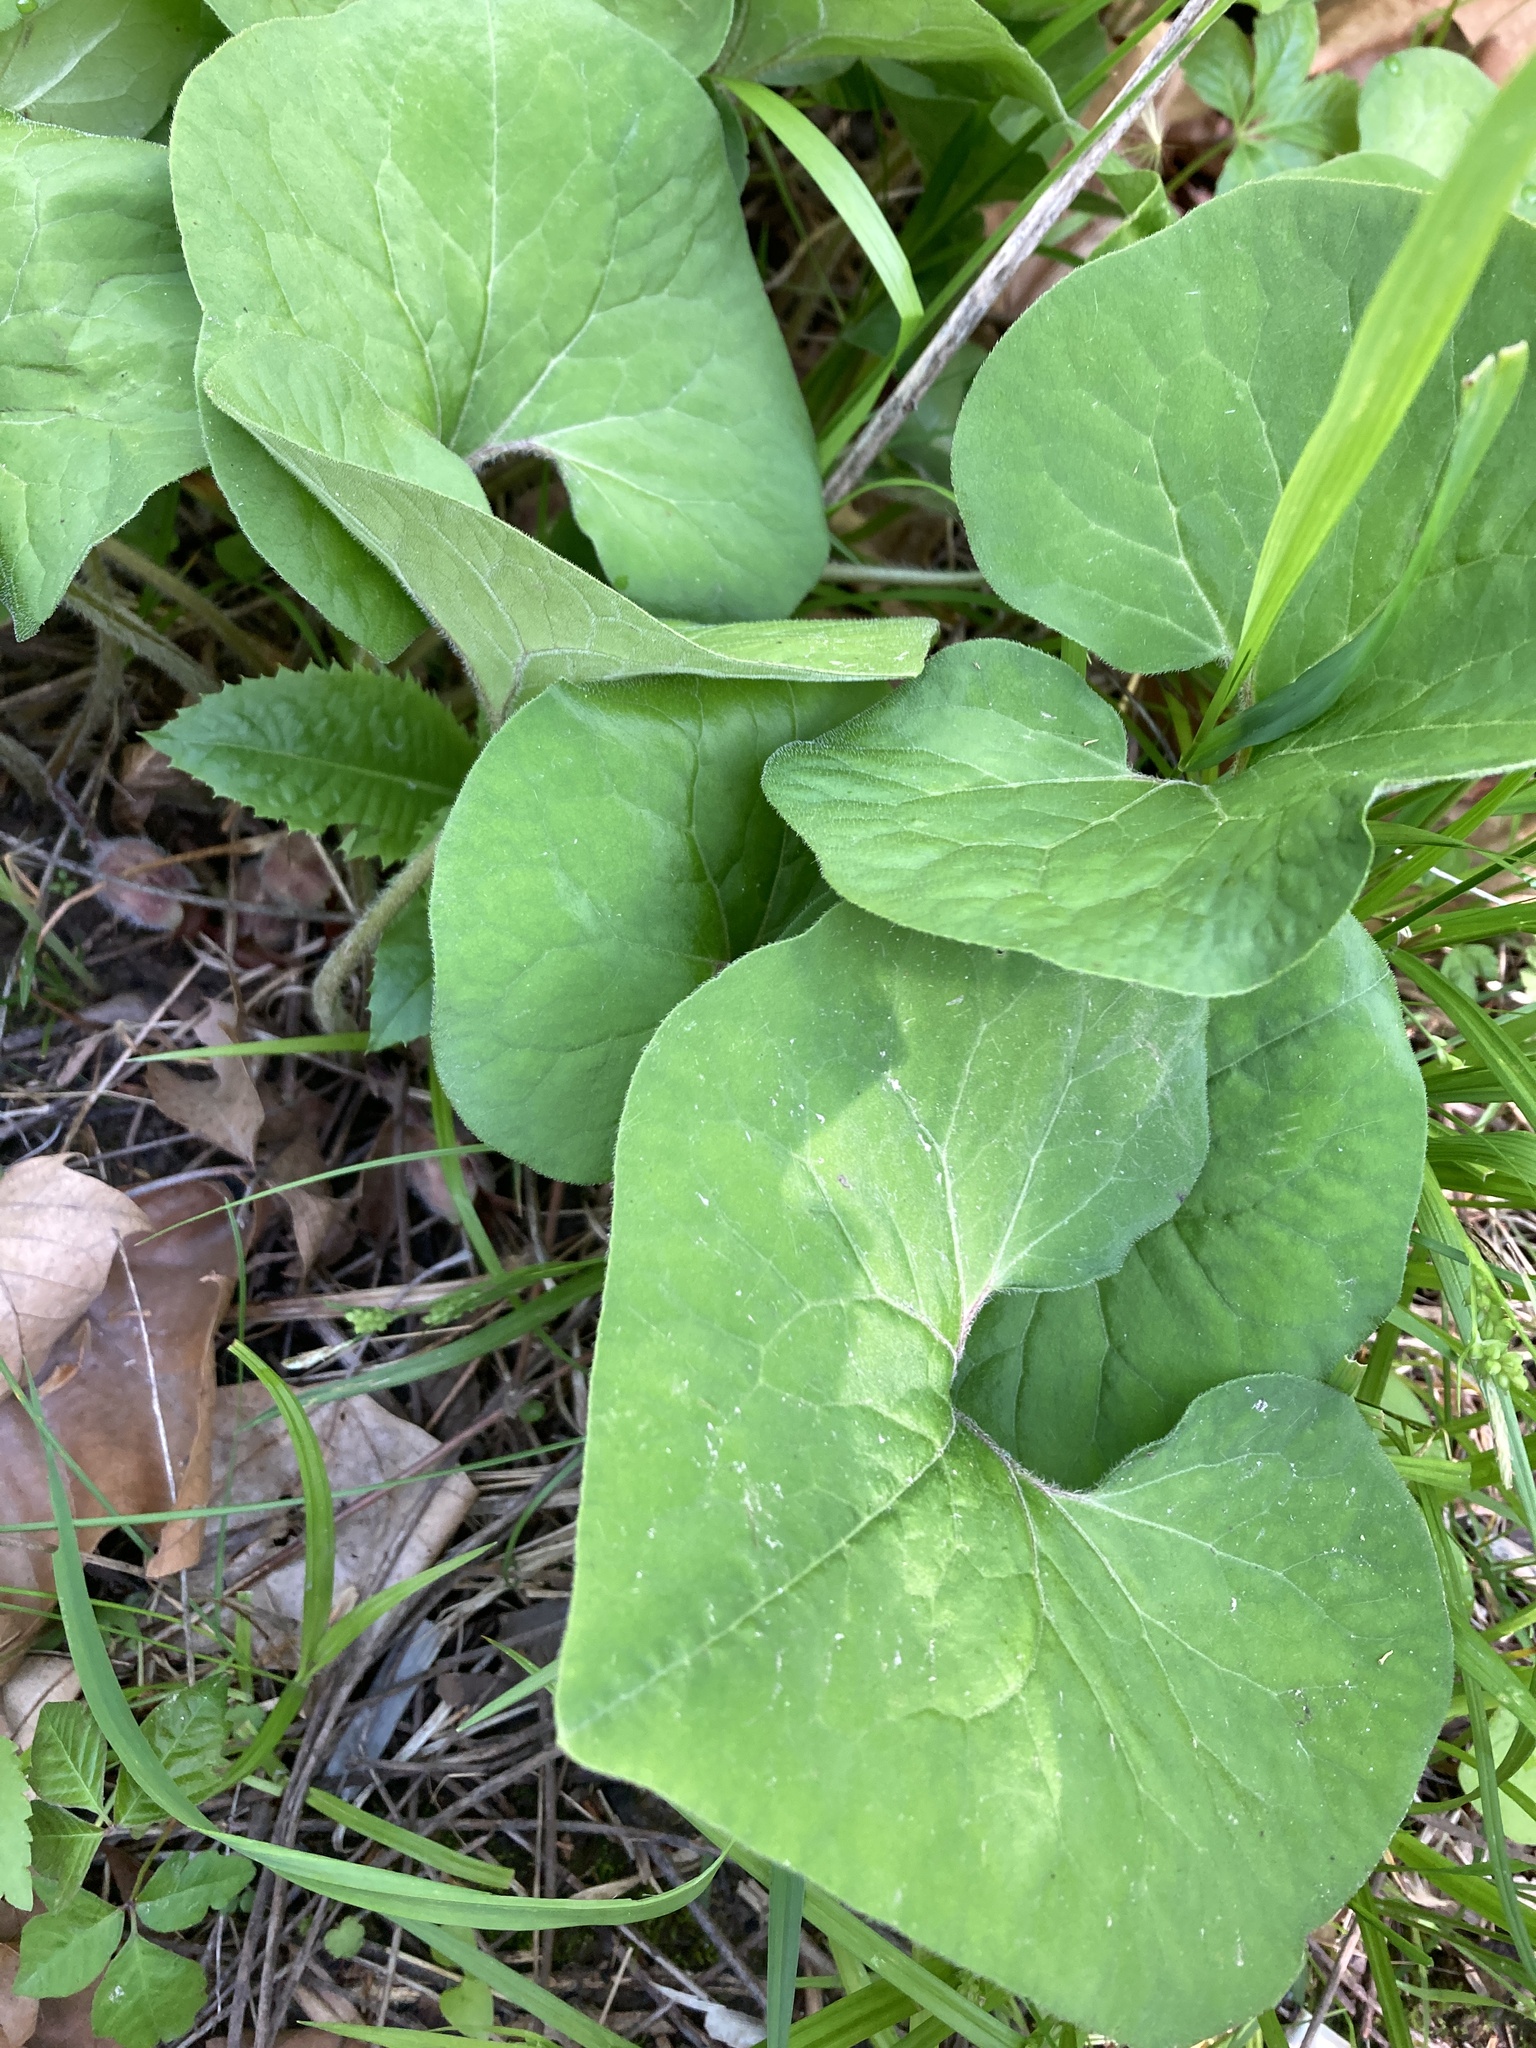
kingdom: Plantae
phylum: Tracheophyta
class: Magnoliopsida
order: Piperales
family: Aristolochiaceae
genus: Asarum
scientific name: Asarum canadense
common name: Wild ginger
